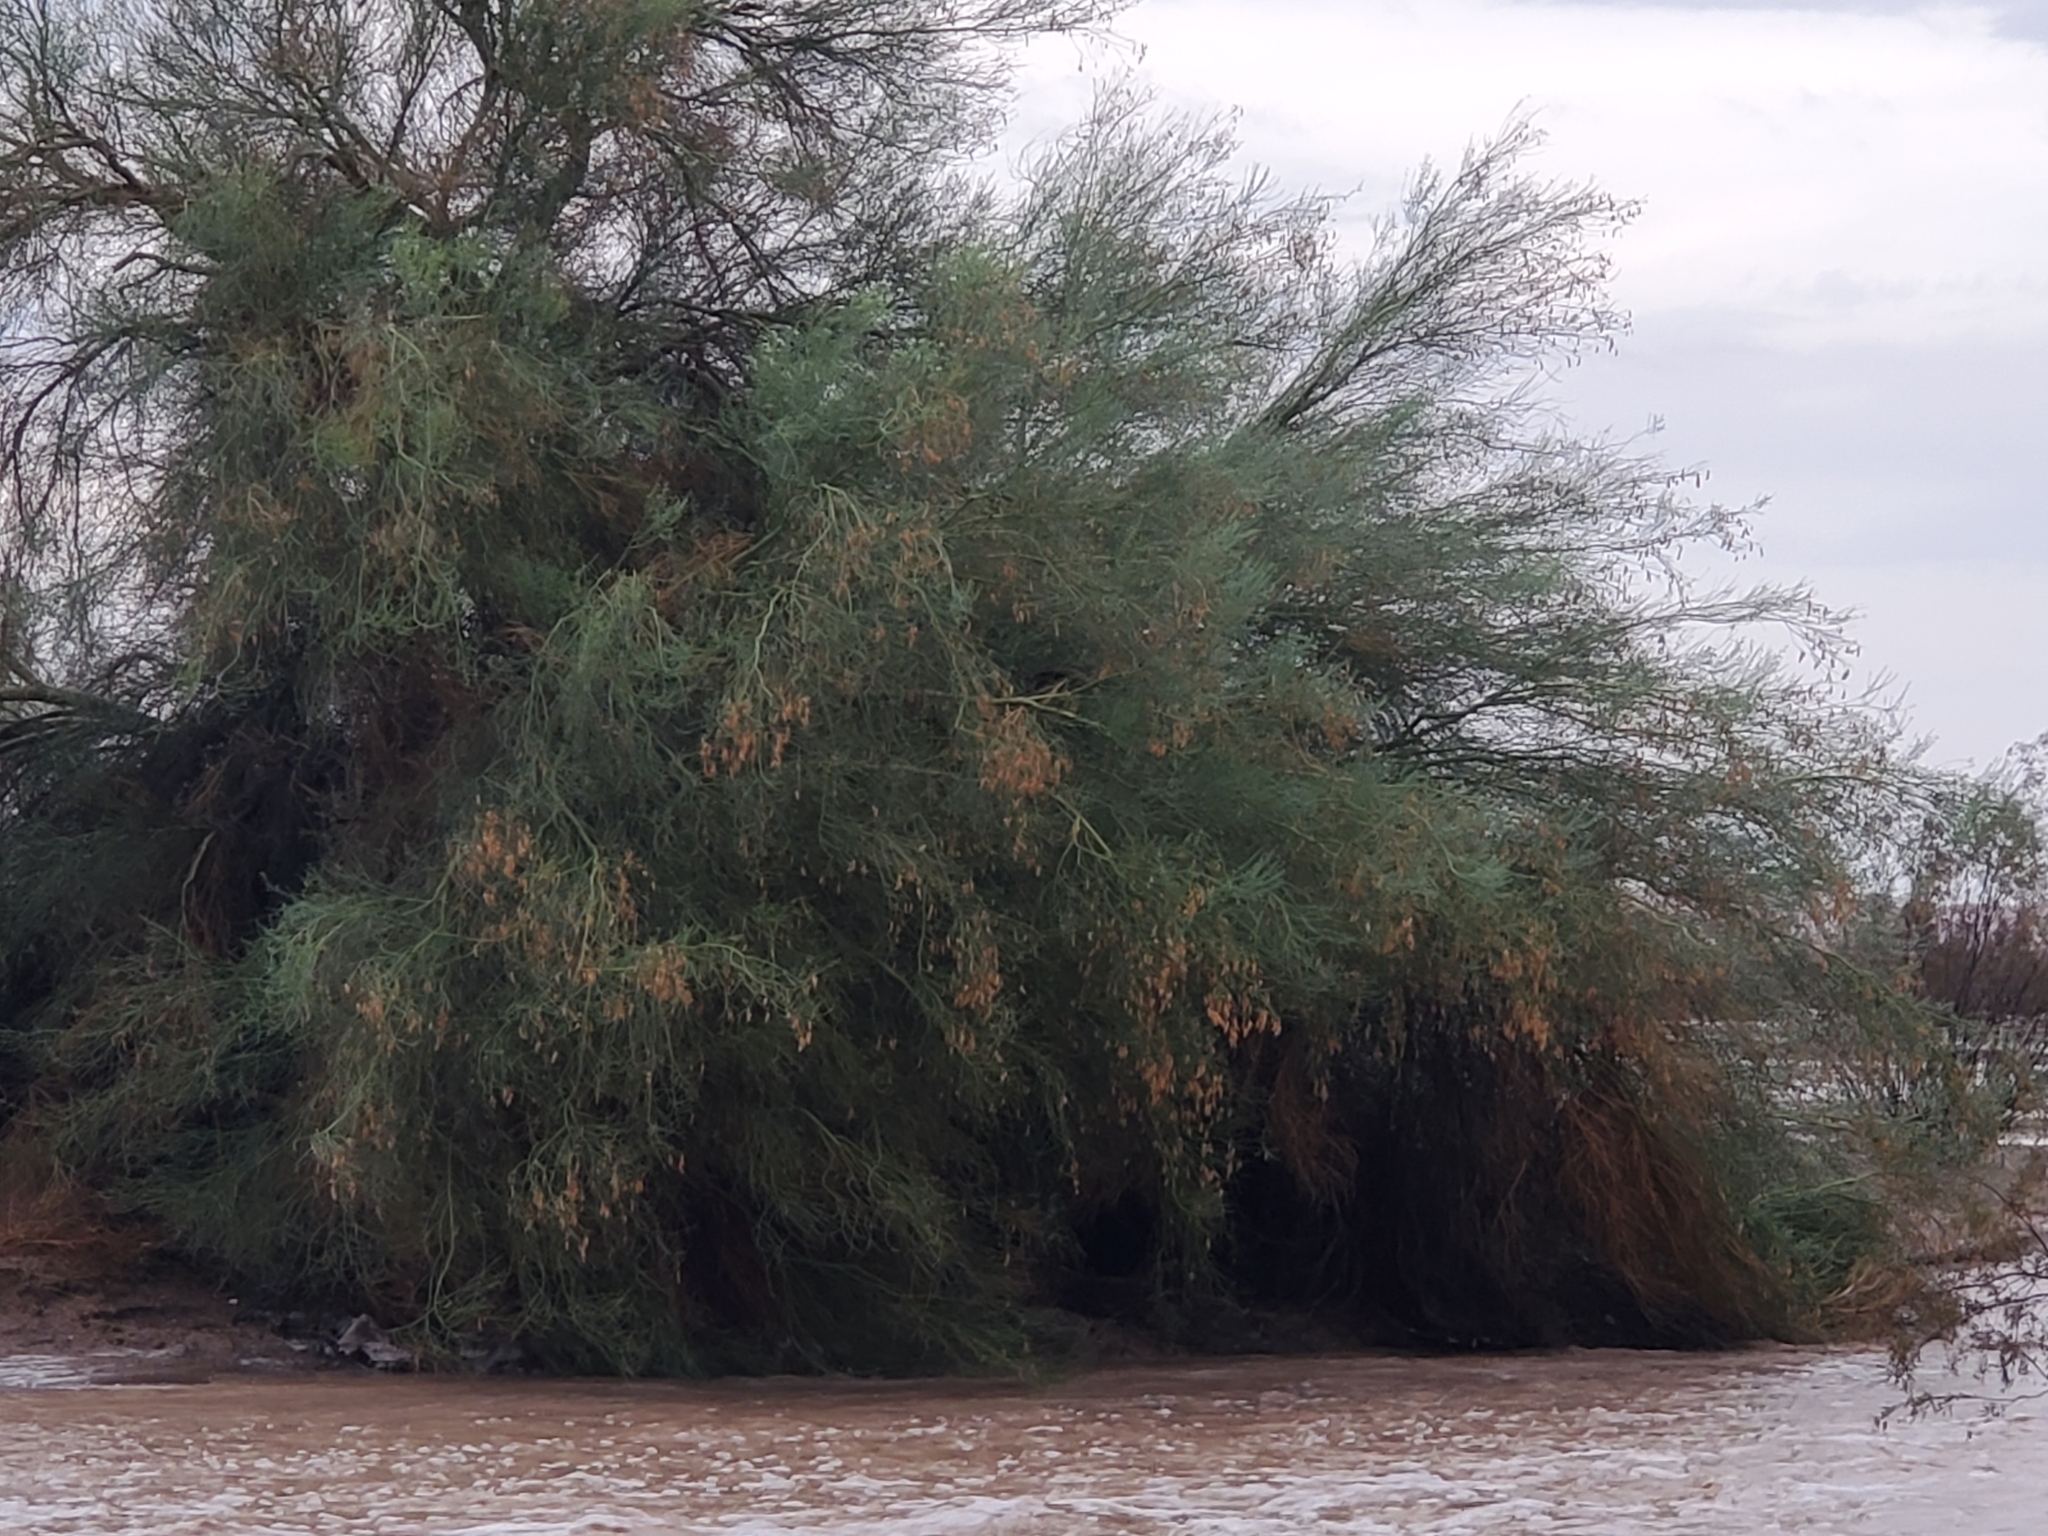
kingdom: Plantae
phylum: Tracheophyta
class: Magnoliopsida
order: Fabales
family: Fabaceae
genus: Parkinsonia
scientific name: Parkinsonia florida
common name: Blue paloverde
